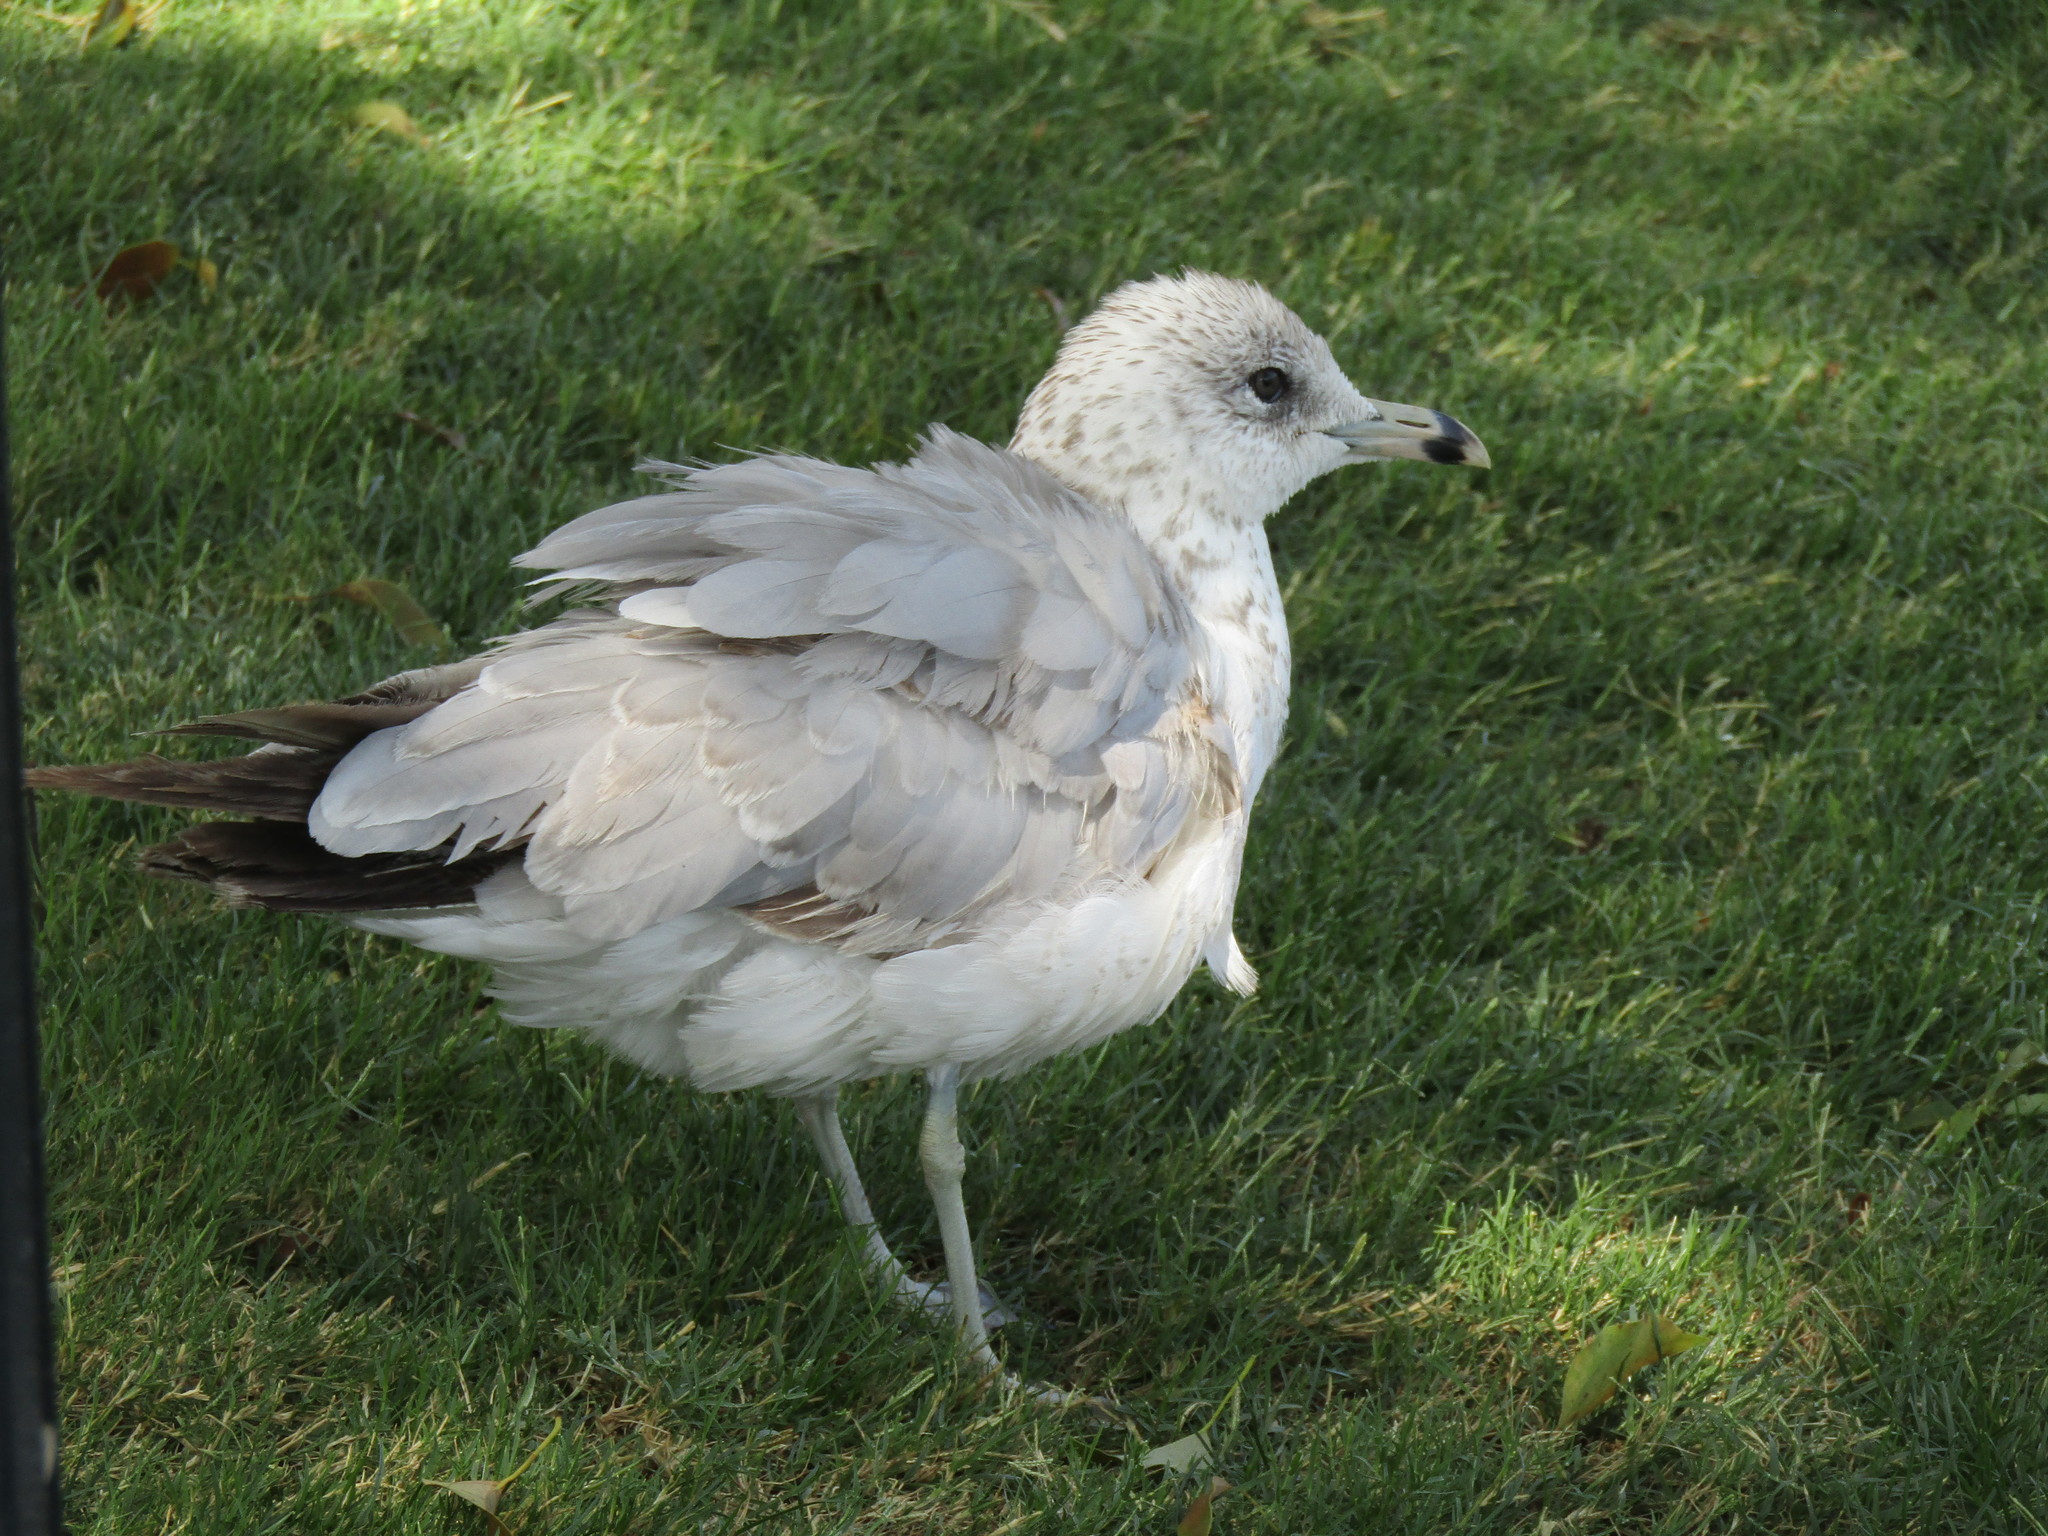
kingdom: Animalia
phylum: Chordata
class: Aves
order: Charadriiformes
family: Laridae
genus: Larus
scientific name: Larus delawarensis
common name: Ring-billed gull
